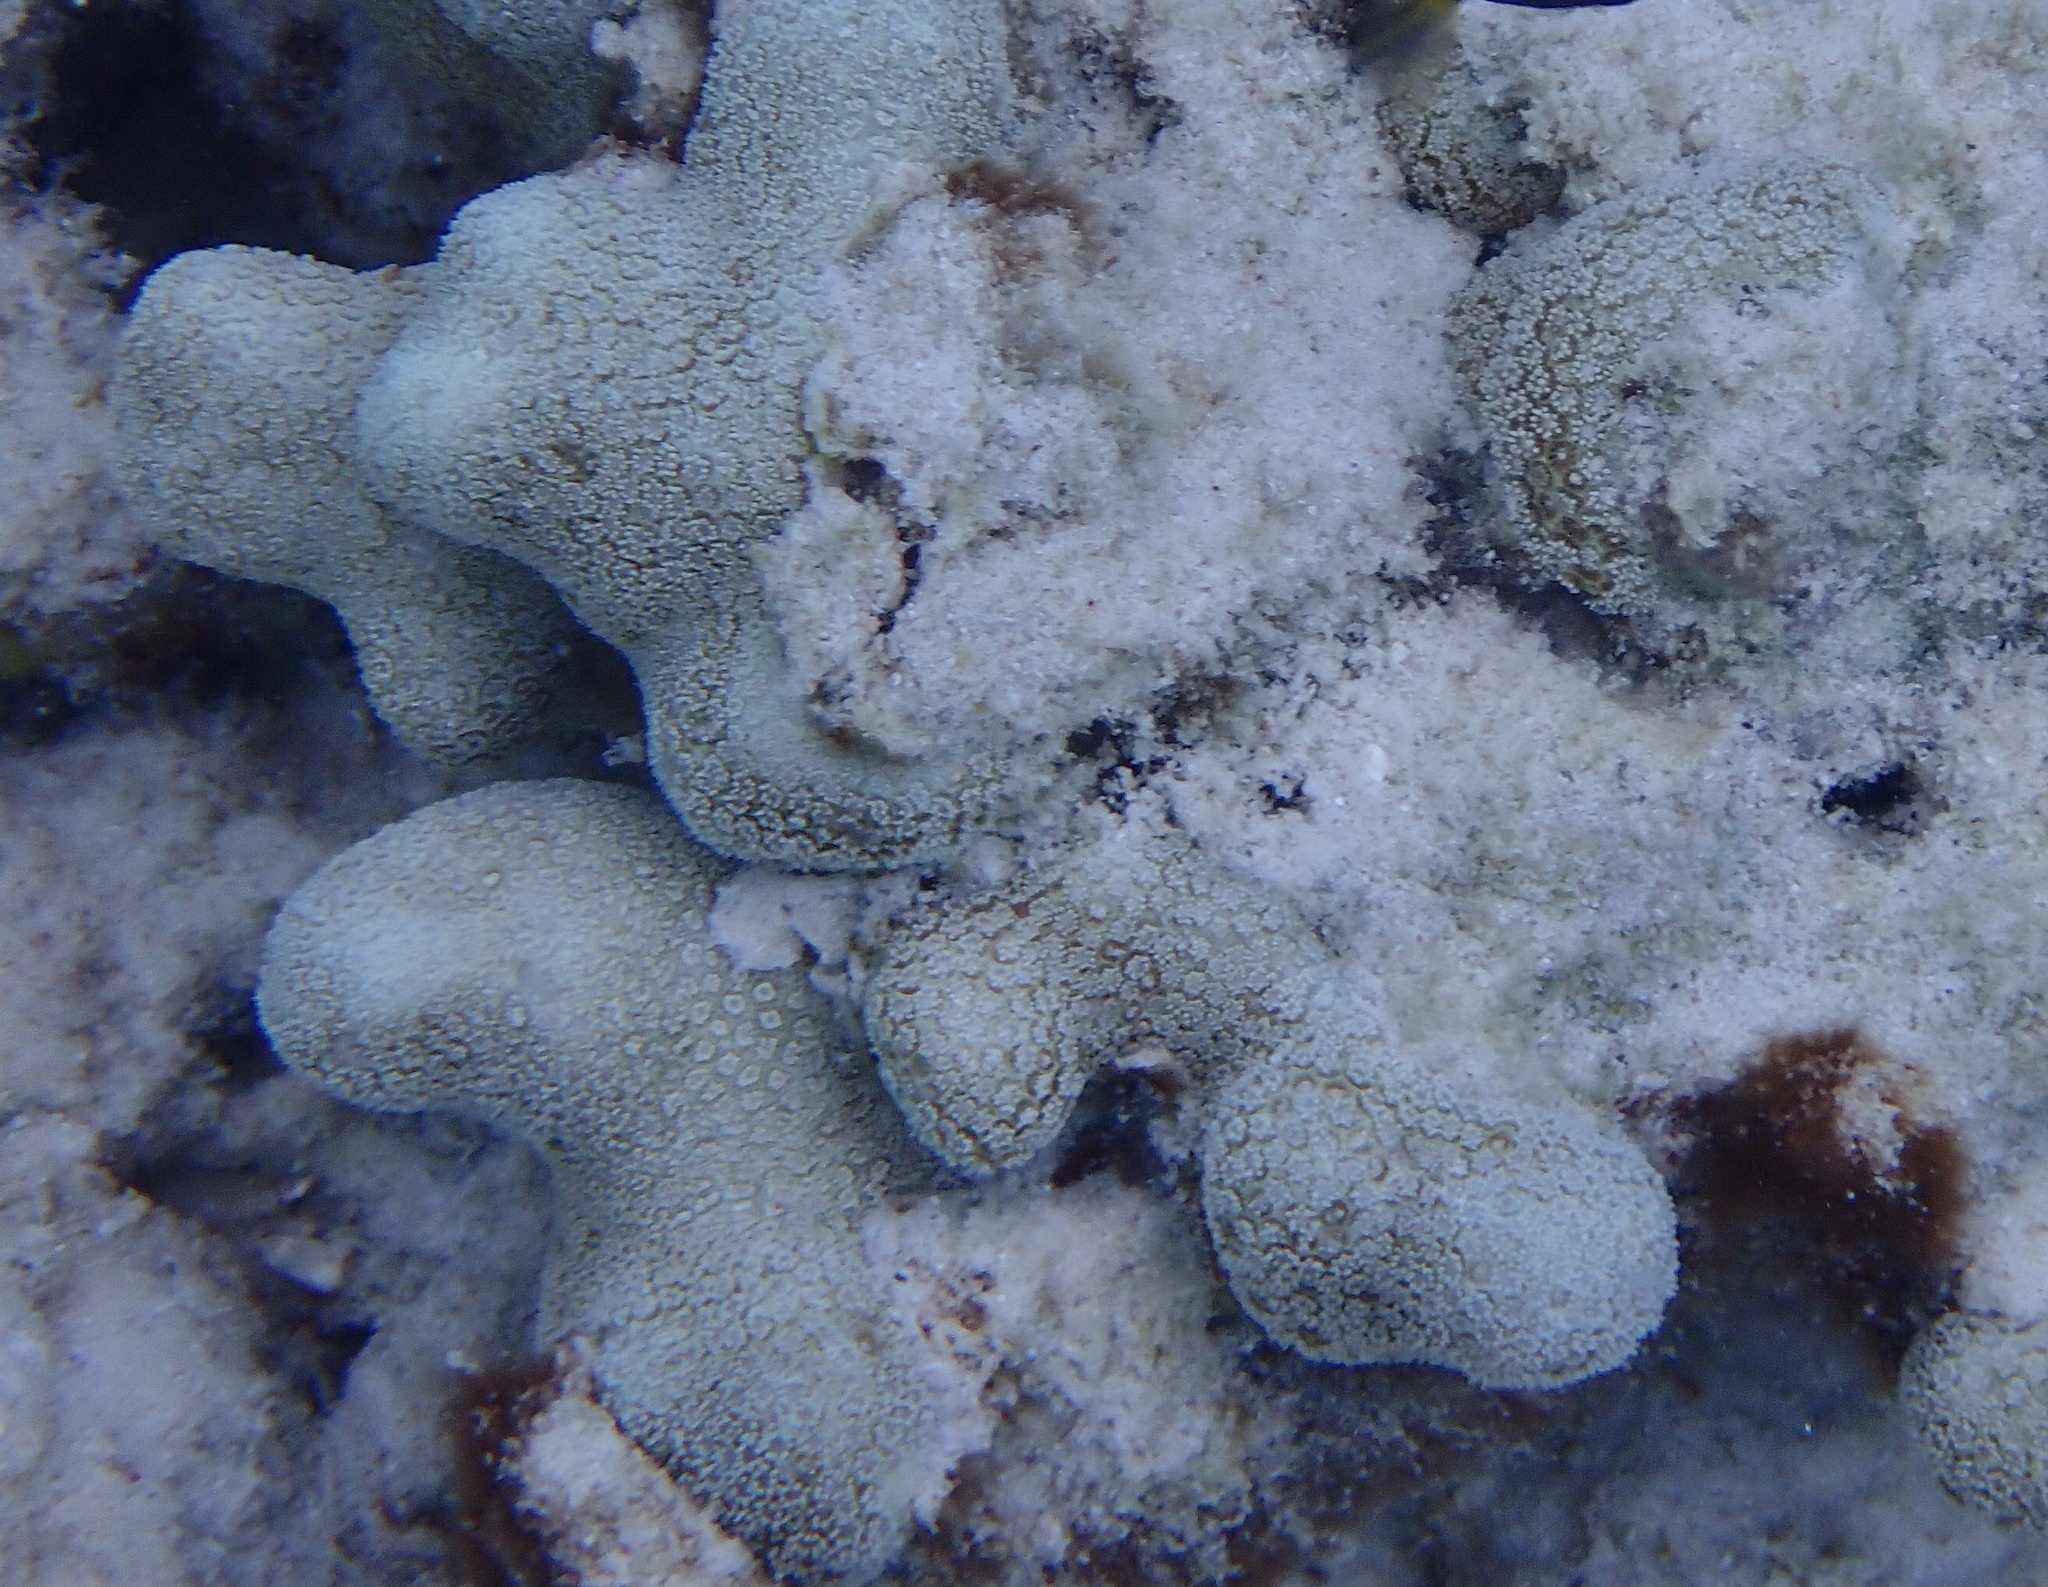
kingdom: Animalia
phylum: Cnidaria
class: Anthozoa
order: Scleractinia
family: Poritidae
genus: Porites
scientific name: Porites porites
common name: Finger coral
